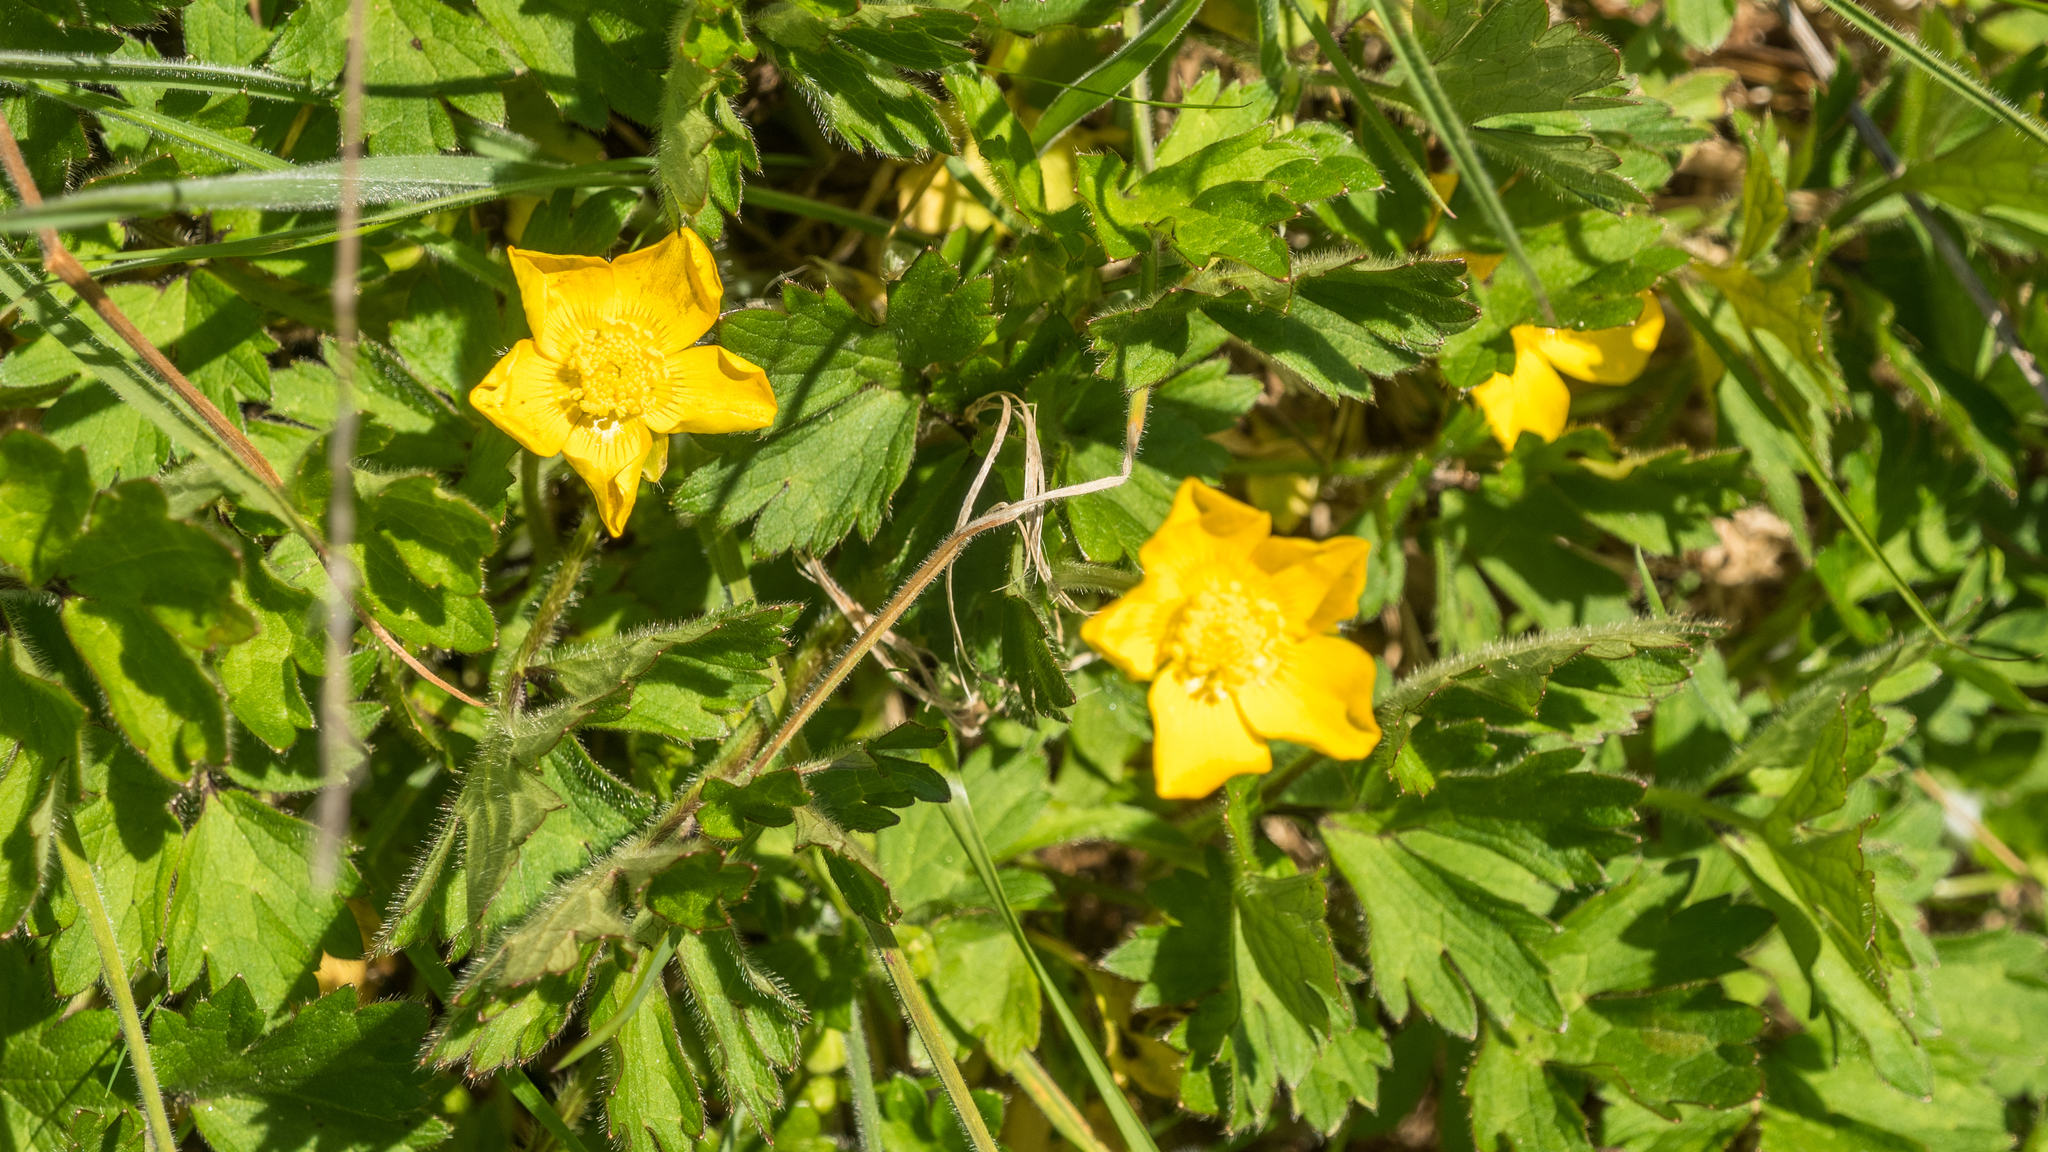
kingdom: Plantae
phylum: Tracheophyta
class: Magnoliopsida
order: Ranunculales
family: Ranunculaceae
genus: Ranunculus
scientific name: Ranunculus repens
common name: Creeping buttercup
